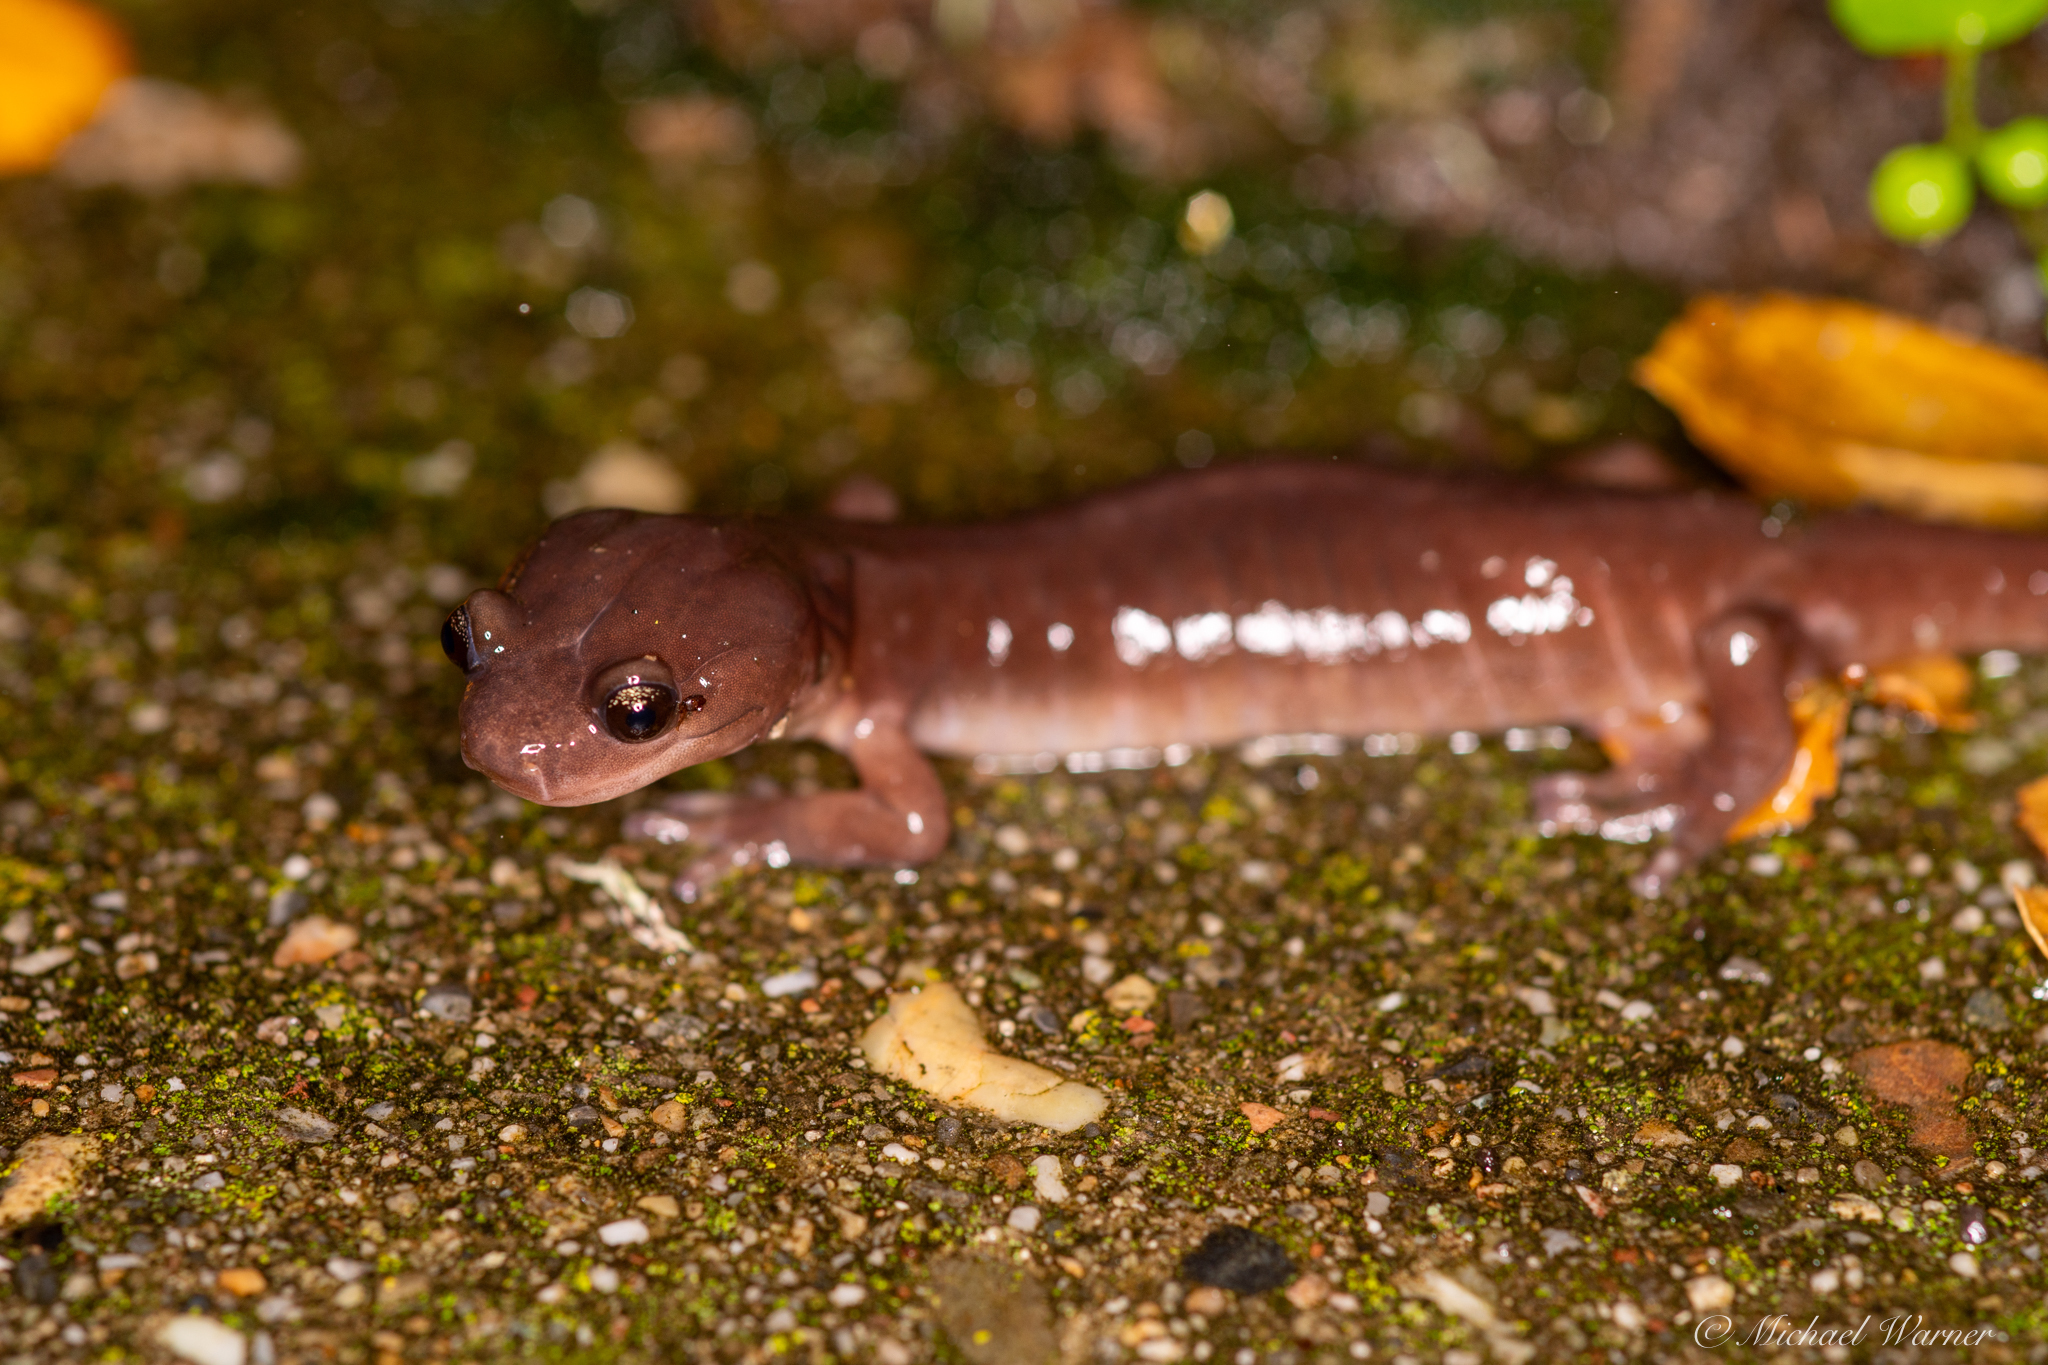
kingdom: Animalia
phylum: Chordata
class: Amphibia
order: Caudata
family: Plethodontidae
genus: Aneides
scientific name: Aneides lugubris
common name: Arboreal salamander
